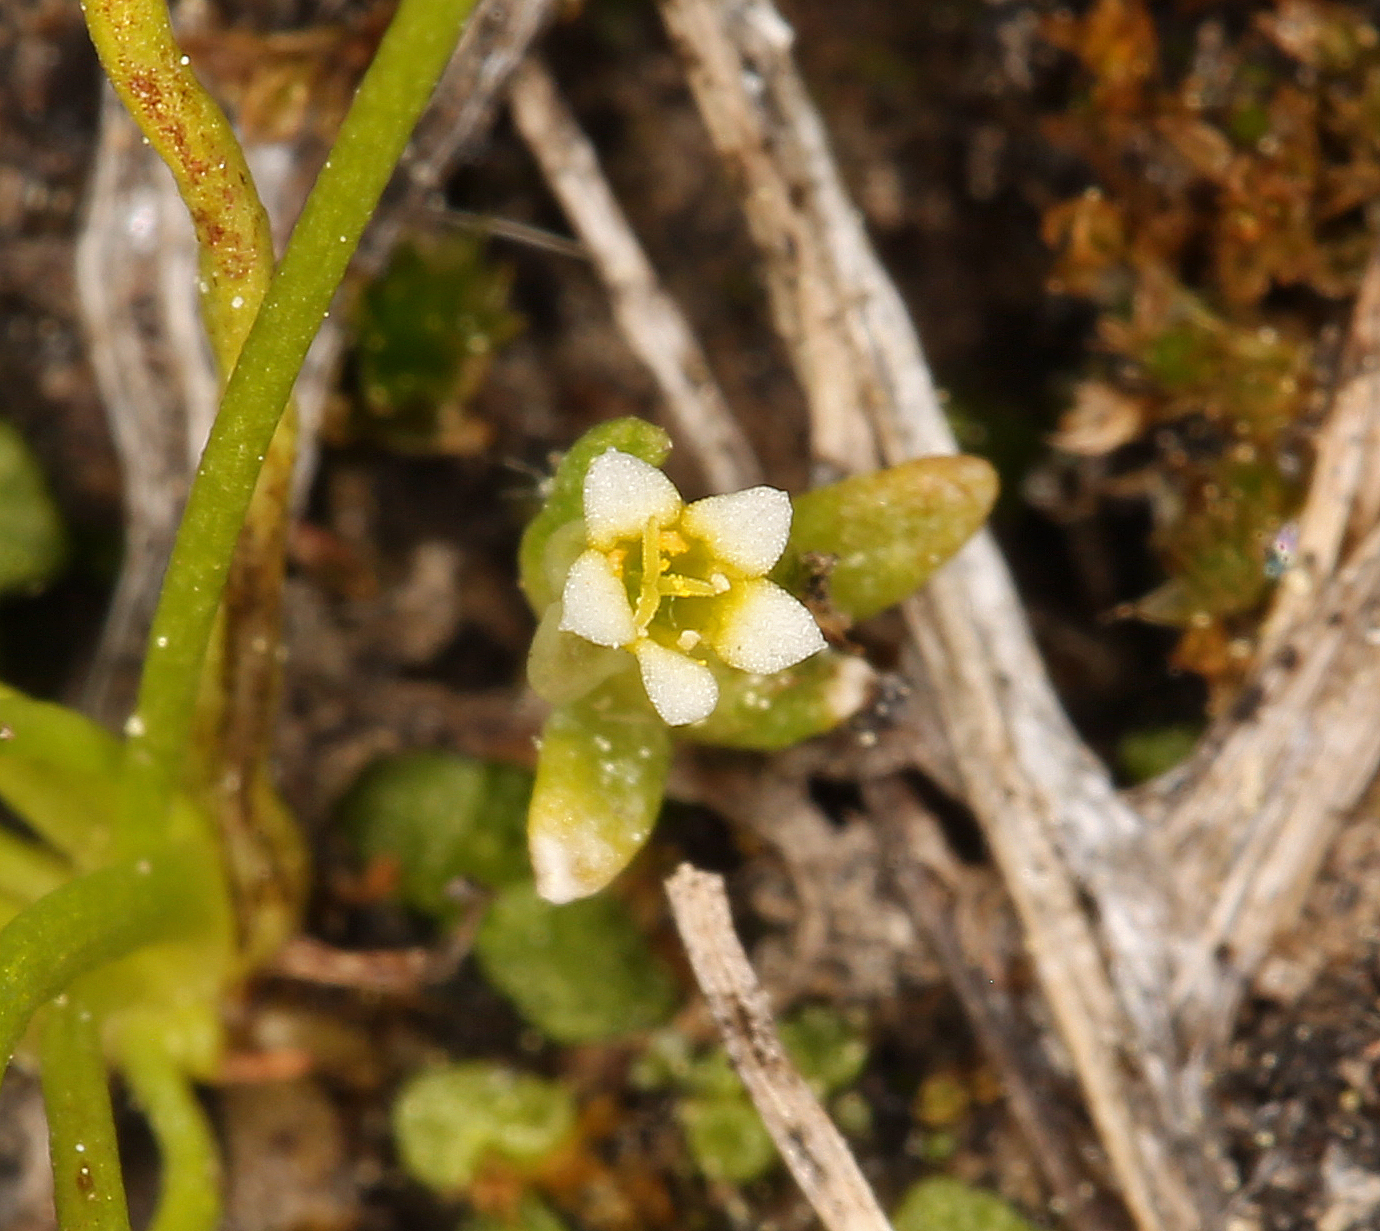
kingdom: Plantae
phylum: Tracheophyta
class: Magnoliopsida
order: Ericales
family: Polemoniaceae
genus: Gymnosteris
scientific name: Gymnosteris parvula
